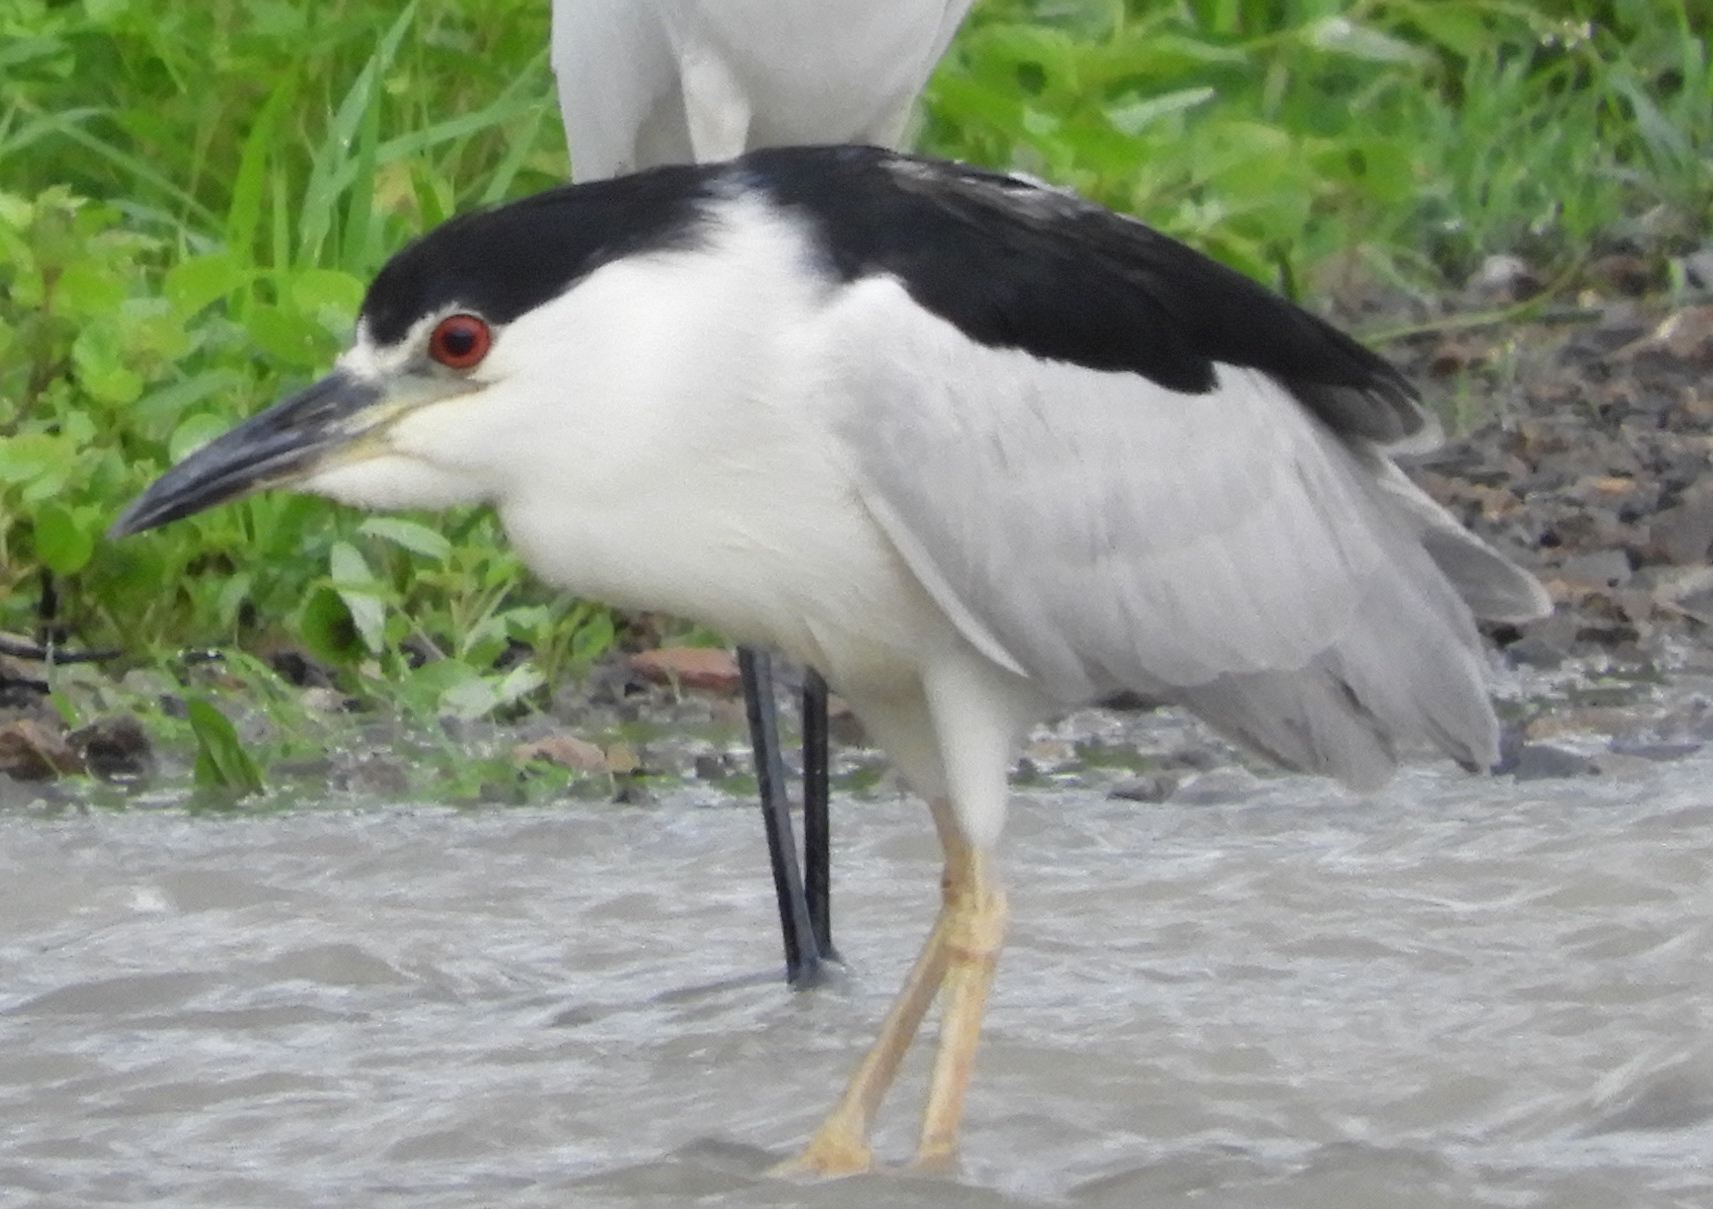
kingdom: Animalia
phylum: Chordata
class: Aves
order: Pelecaniformes
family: Ardeidae
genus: Nycticorax
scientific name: Nycticorax nycticorax
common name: Black-crowned night heron
